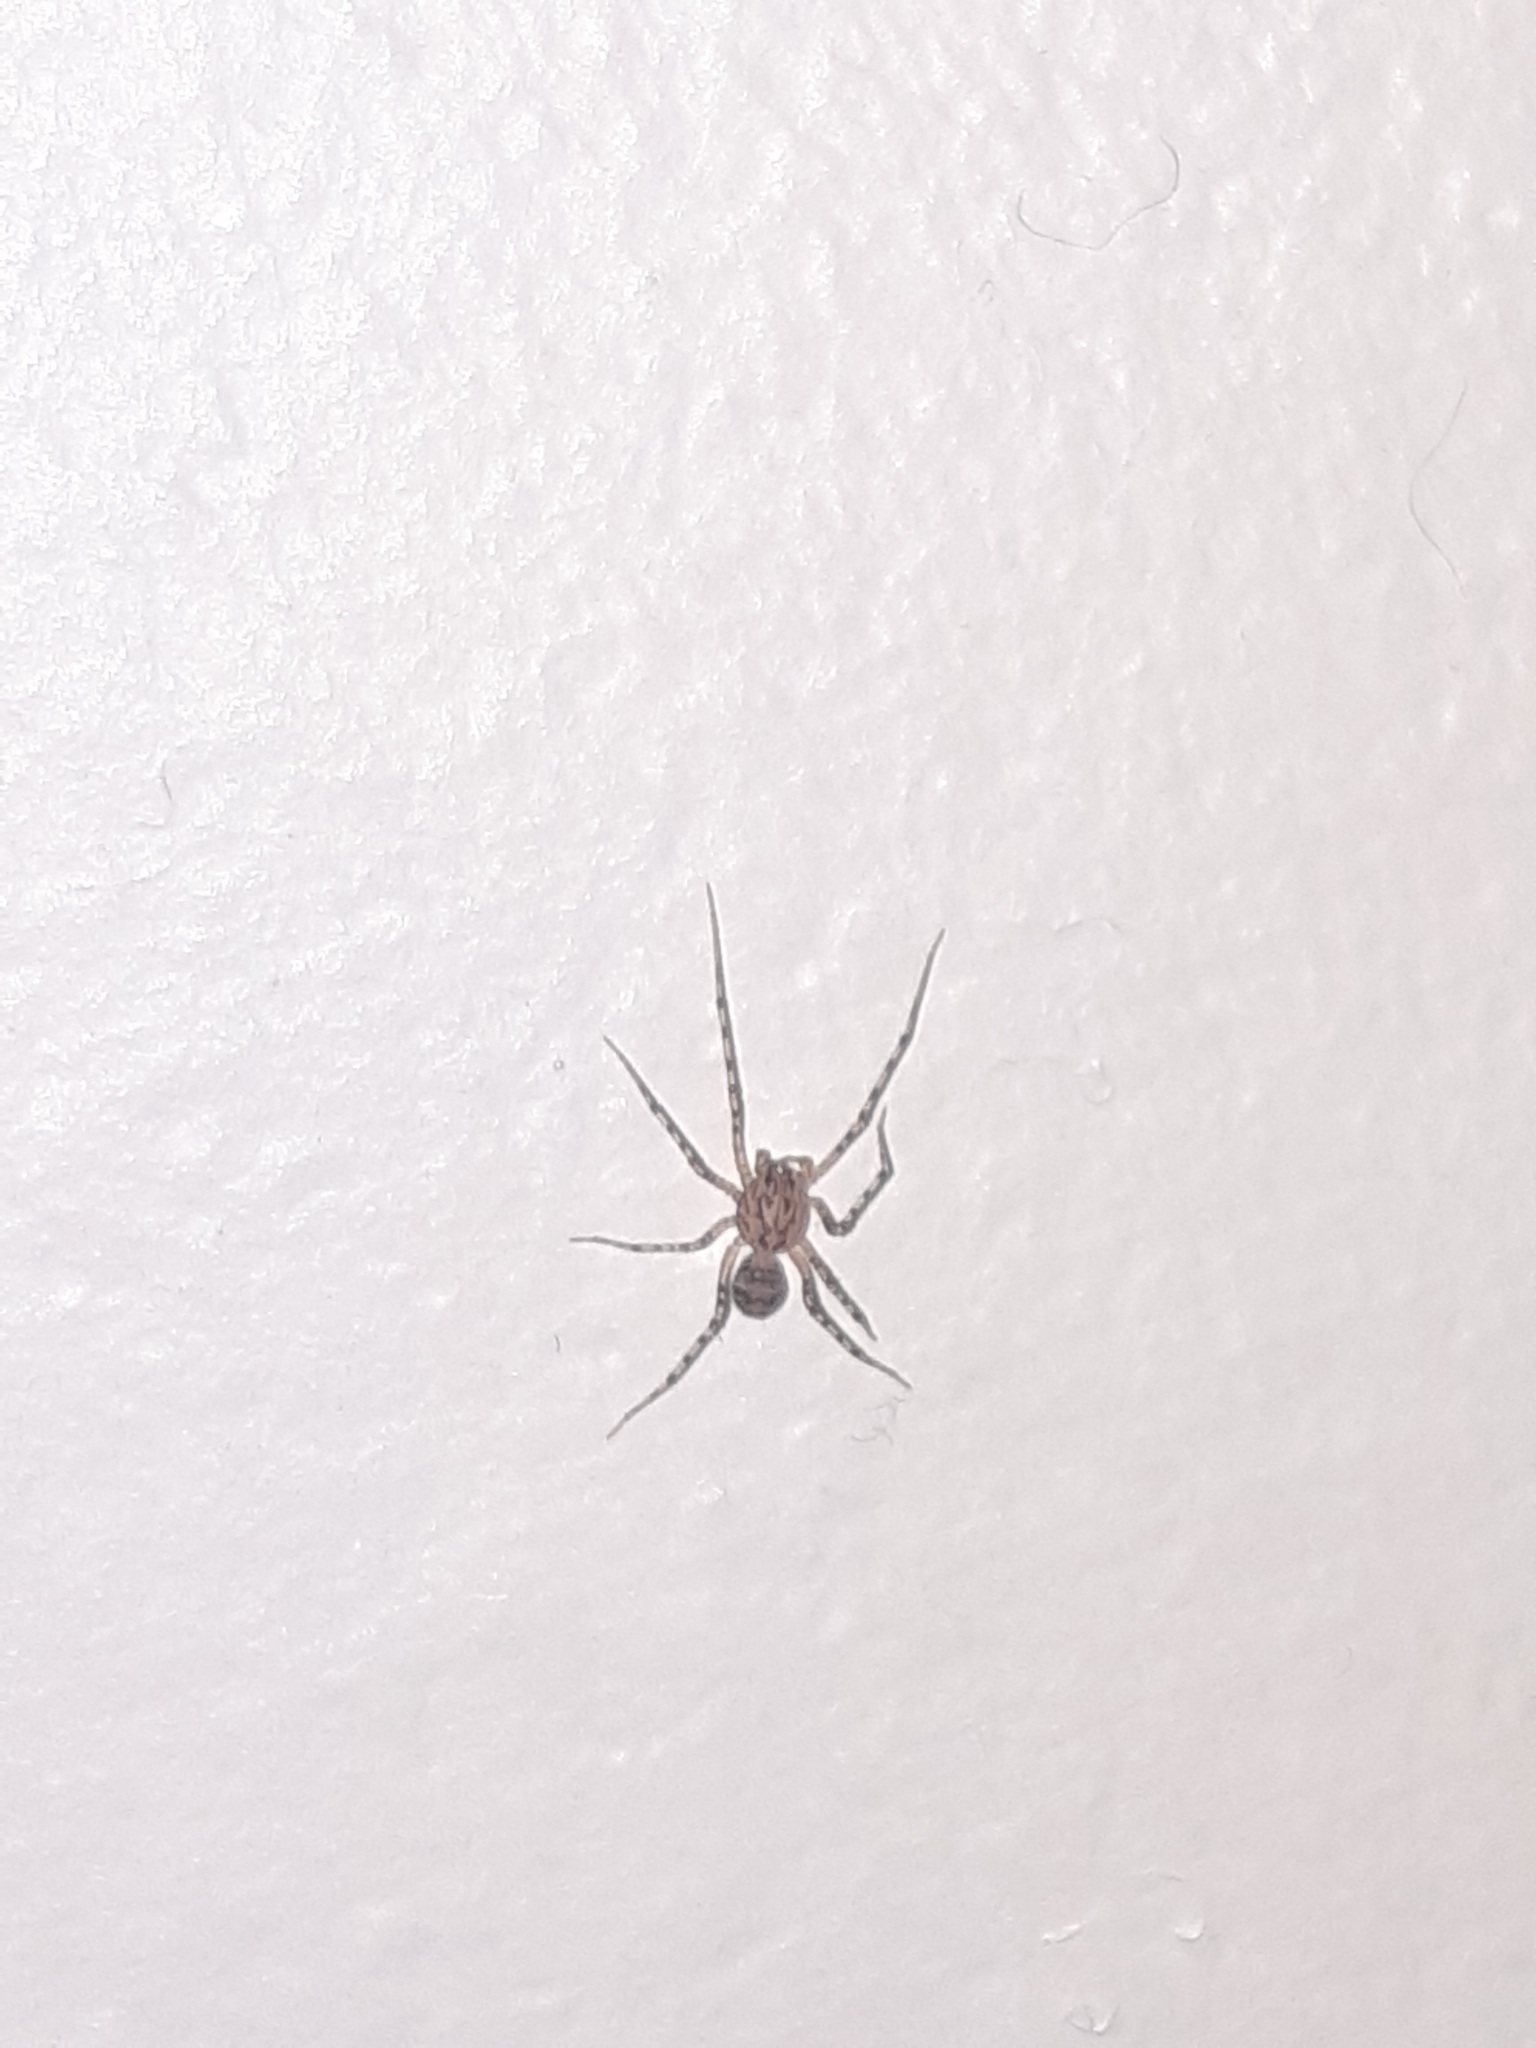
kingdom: Animalia
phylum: Arthropoda
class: Arachnida
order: Araneae
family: Scytodidae
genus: Scytodes
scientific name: Scytodes thoracica
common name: Spitting spider
